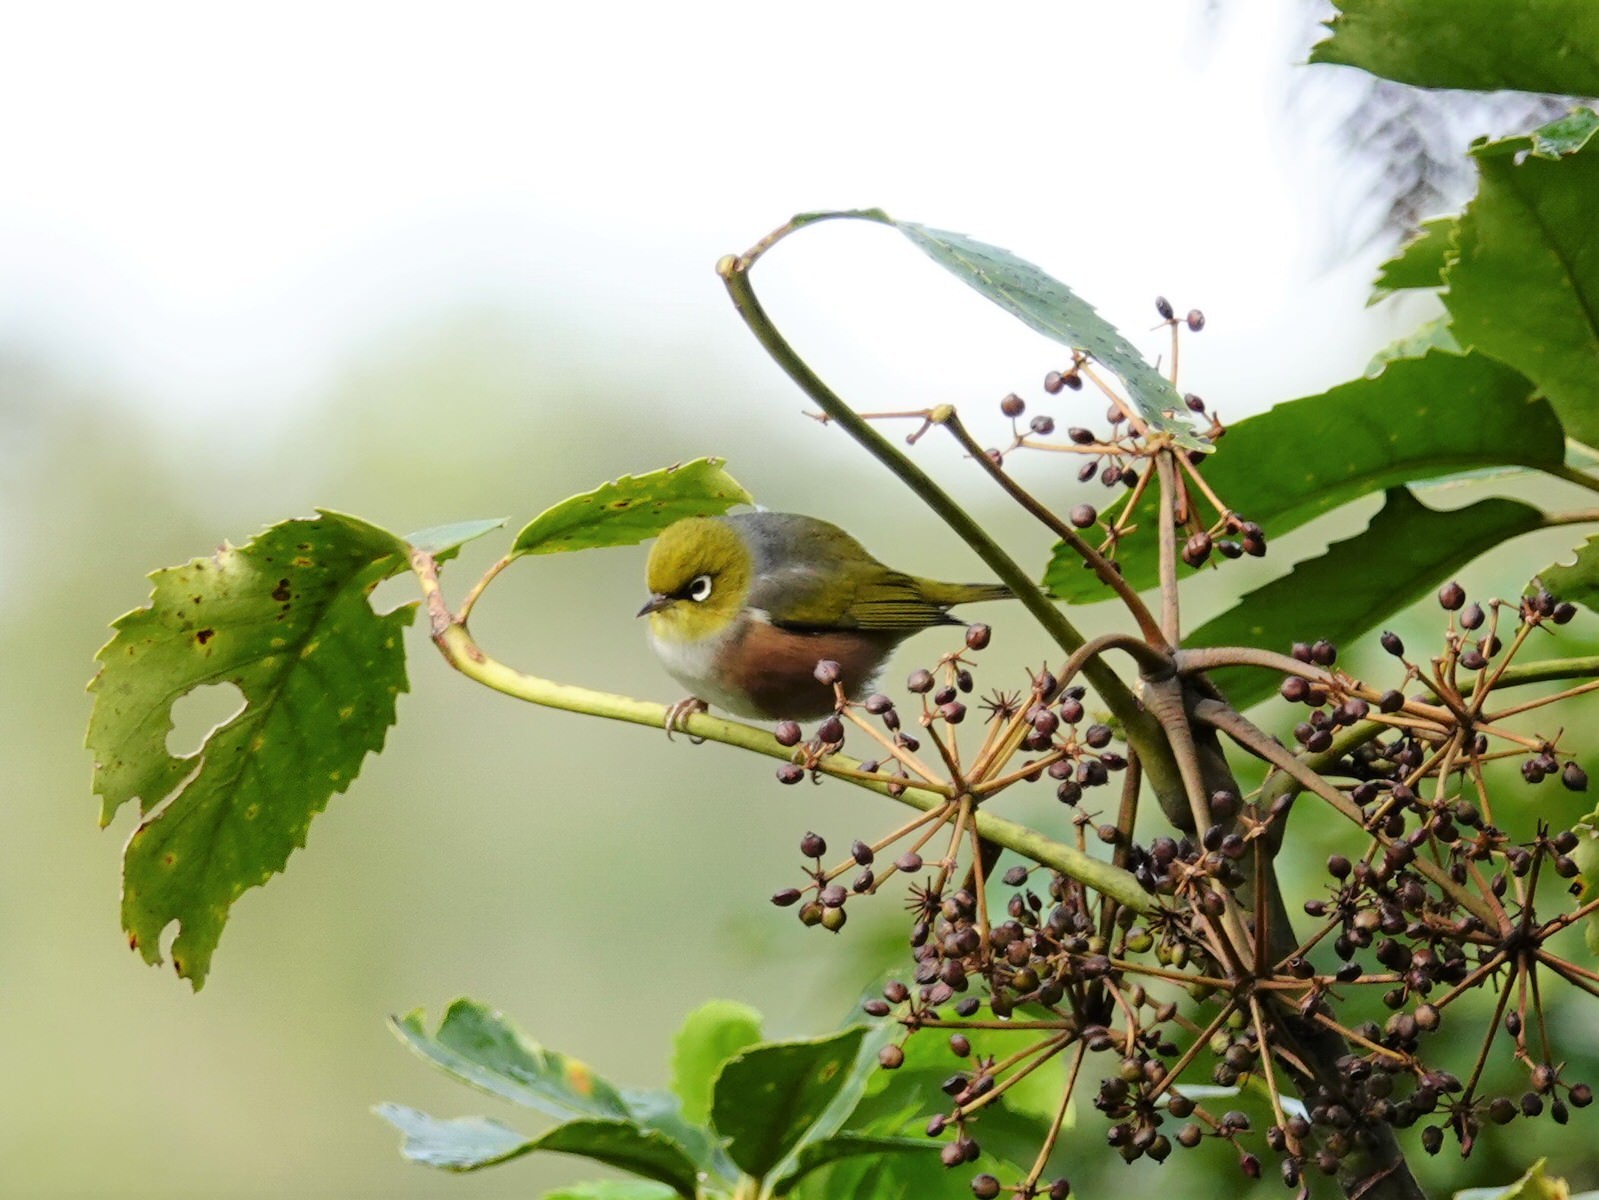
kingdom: Animalia
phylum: Chordata
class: Aves
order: Passeriformes
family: Zosteropidae
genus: Zosterops
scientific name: Zosterops lateralis
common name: Silvereye
